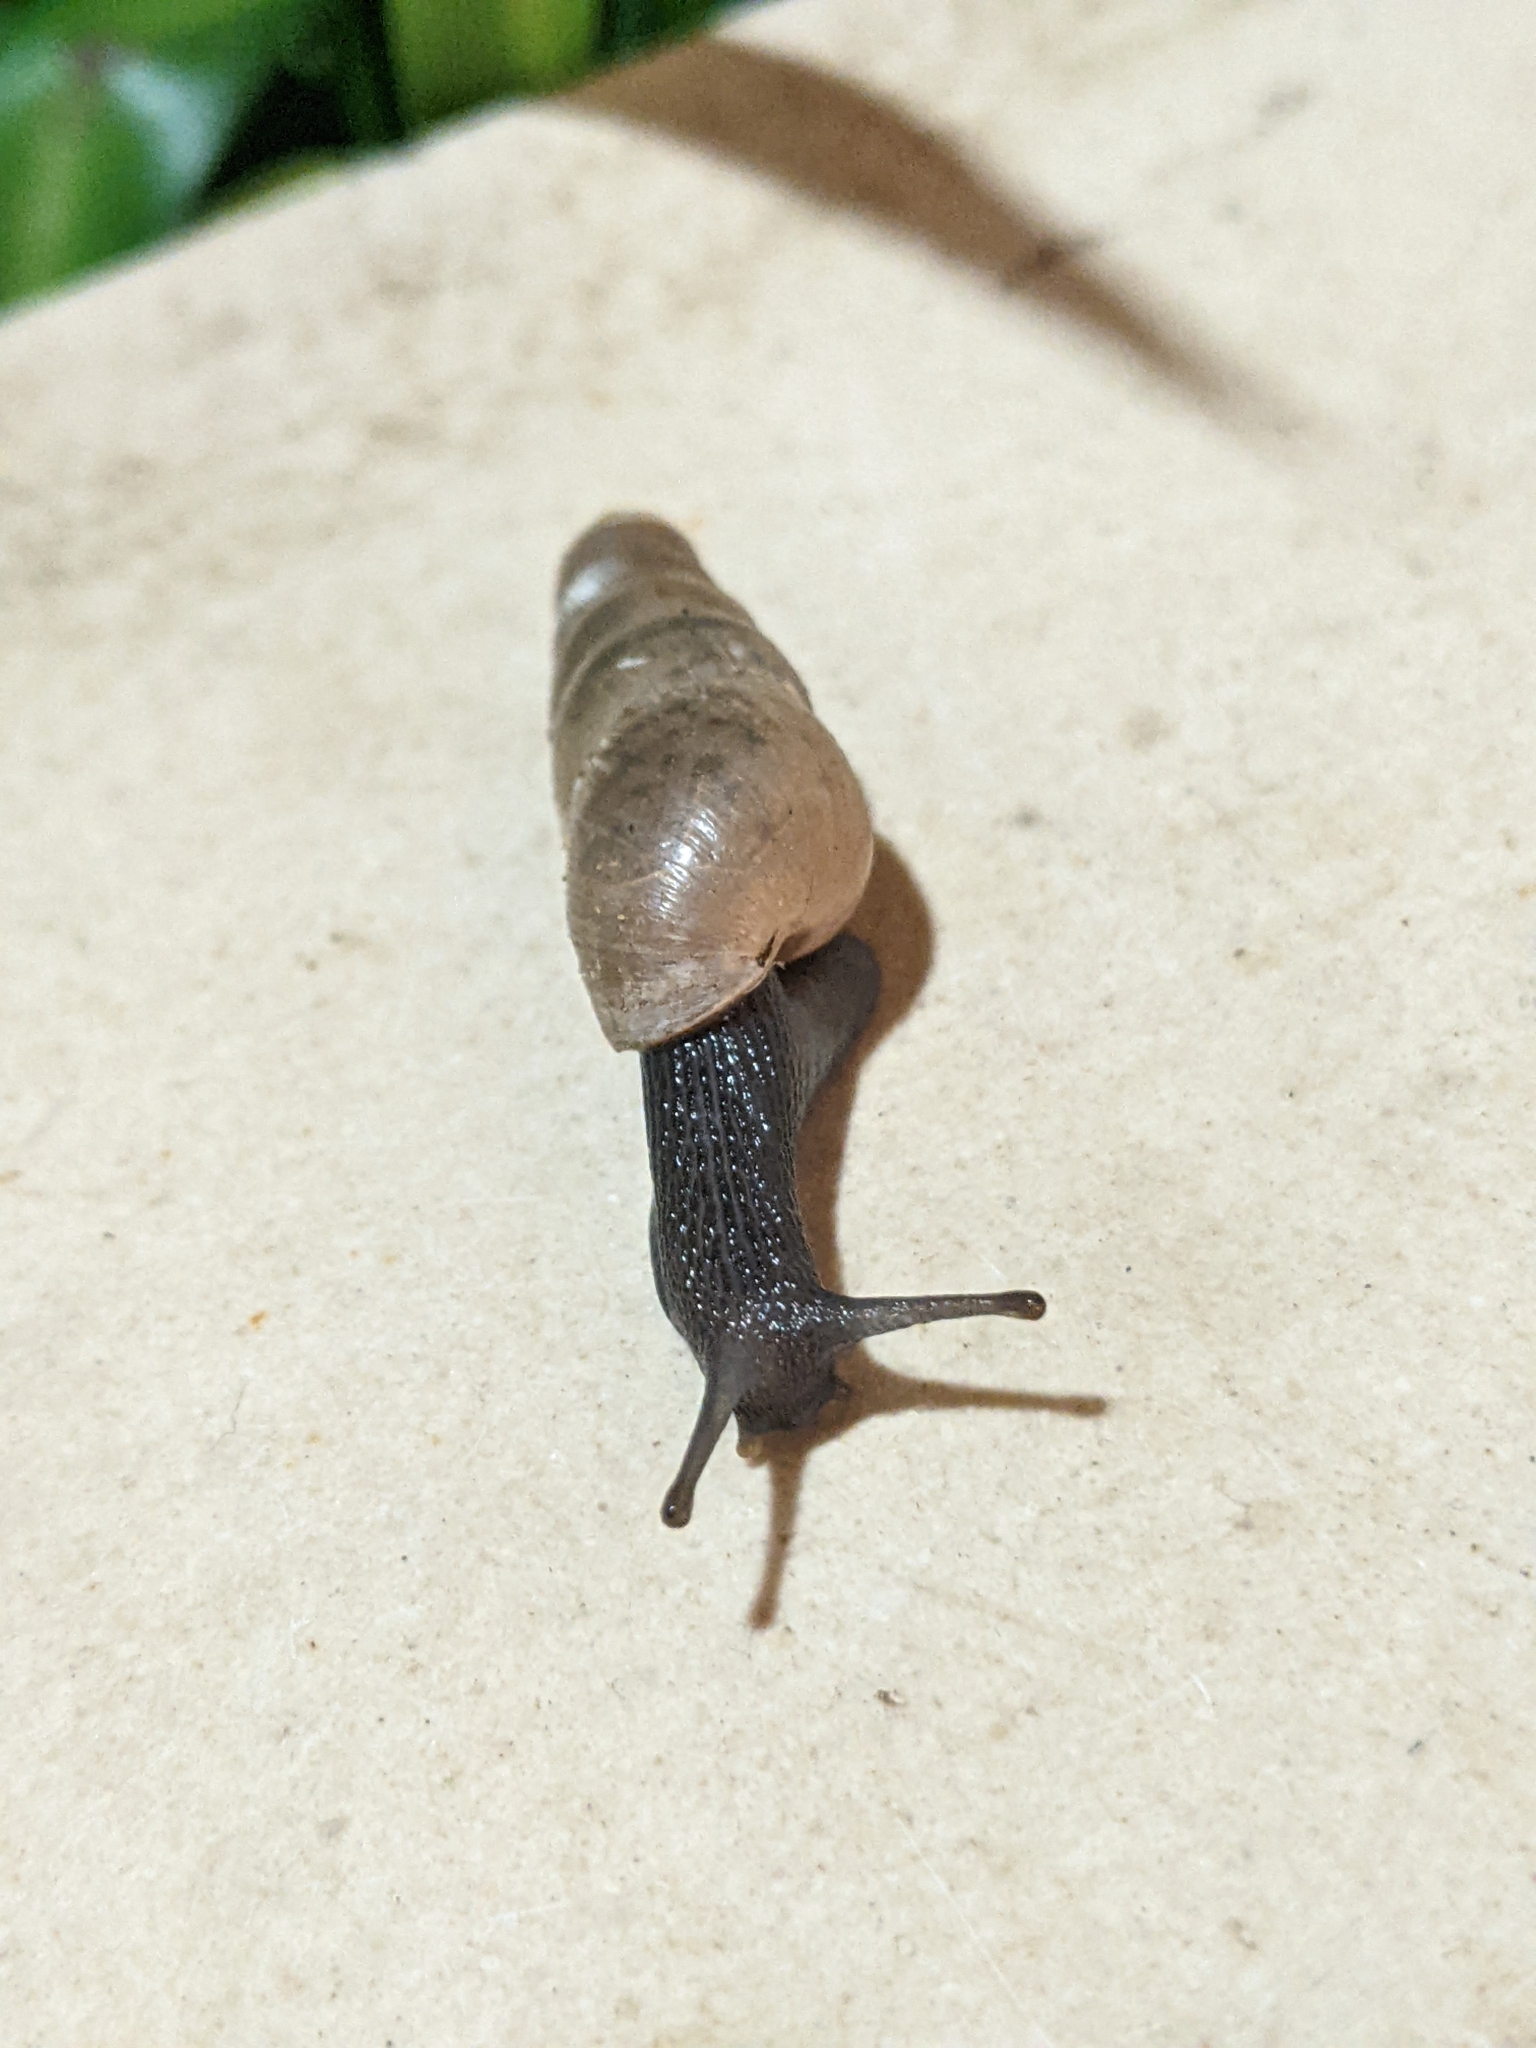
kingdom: Animalia
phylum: Mollusca
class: Gastropoda
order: Stylommatophora
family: Achatinidae
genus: Rumina
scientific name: Rumina decollata
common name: Decollate snail
